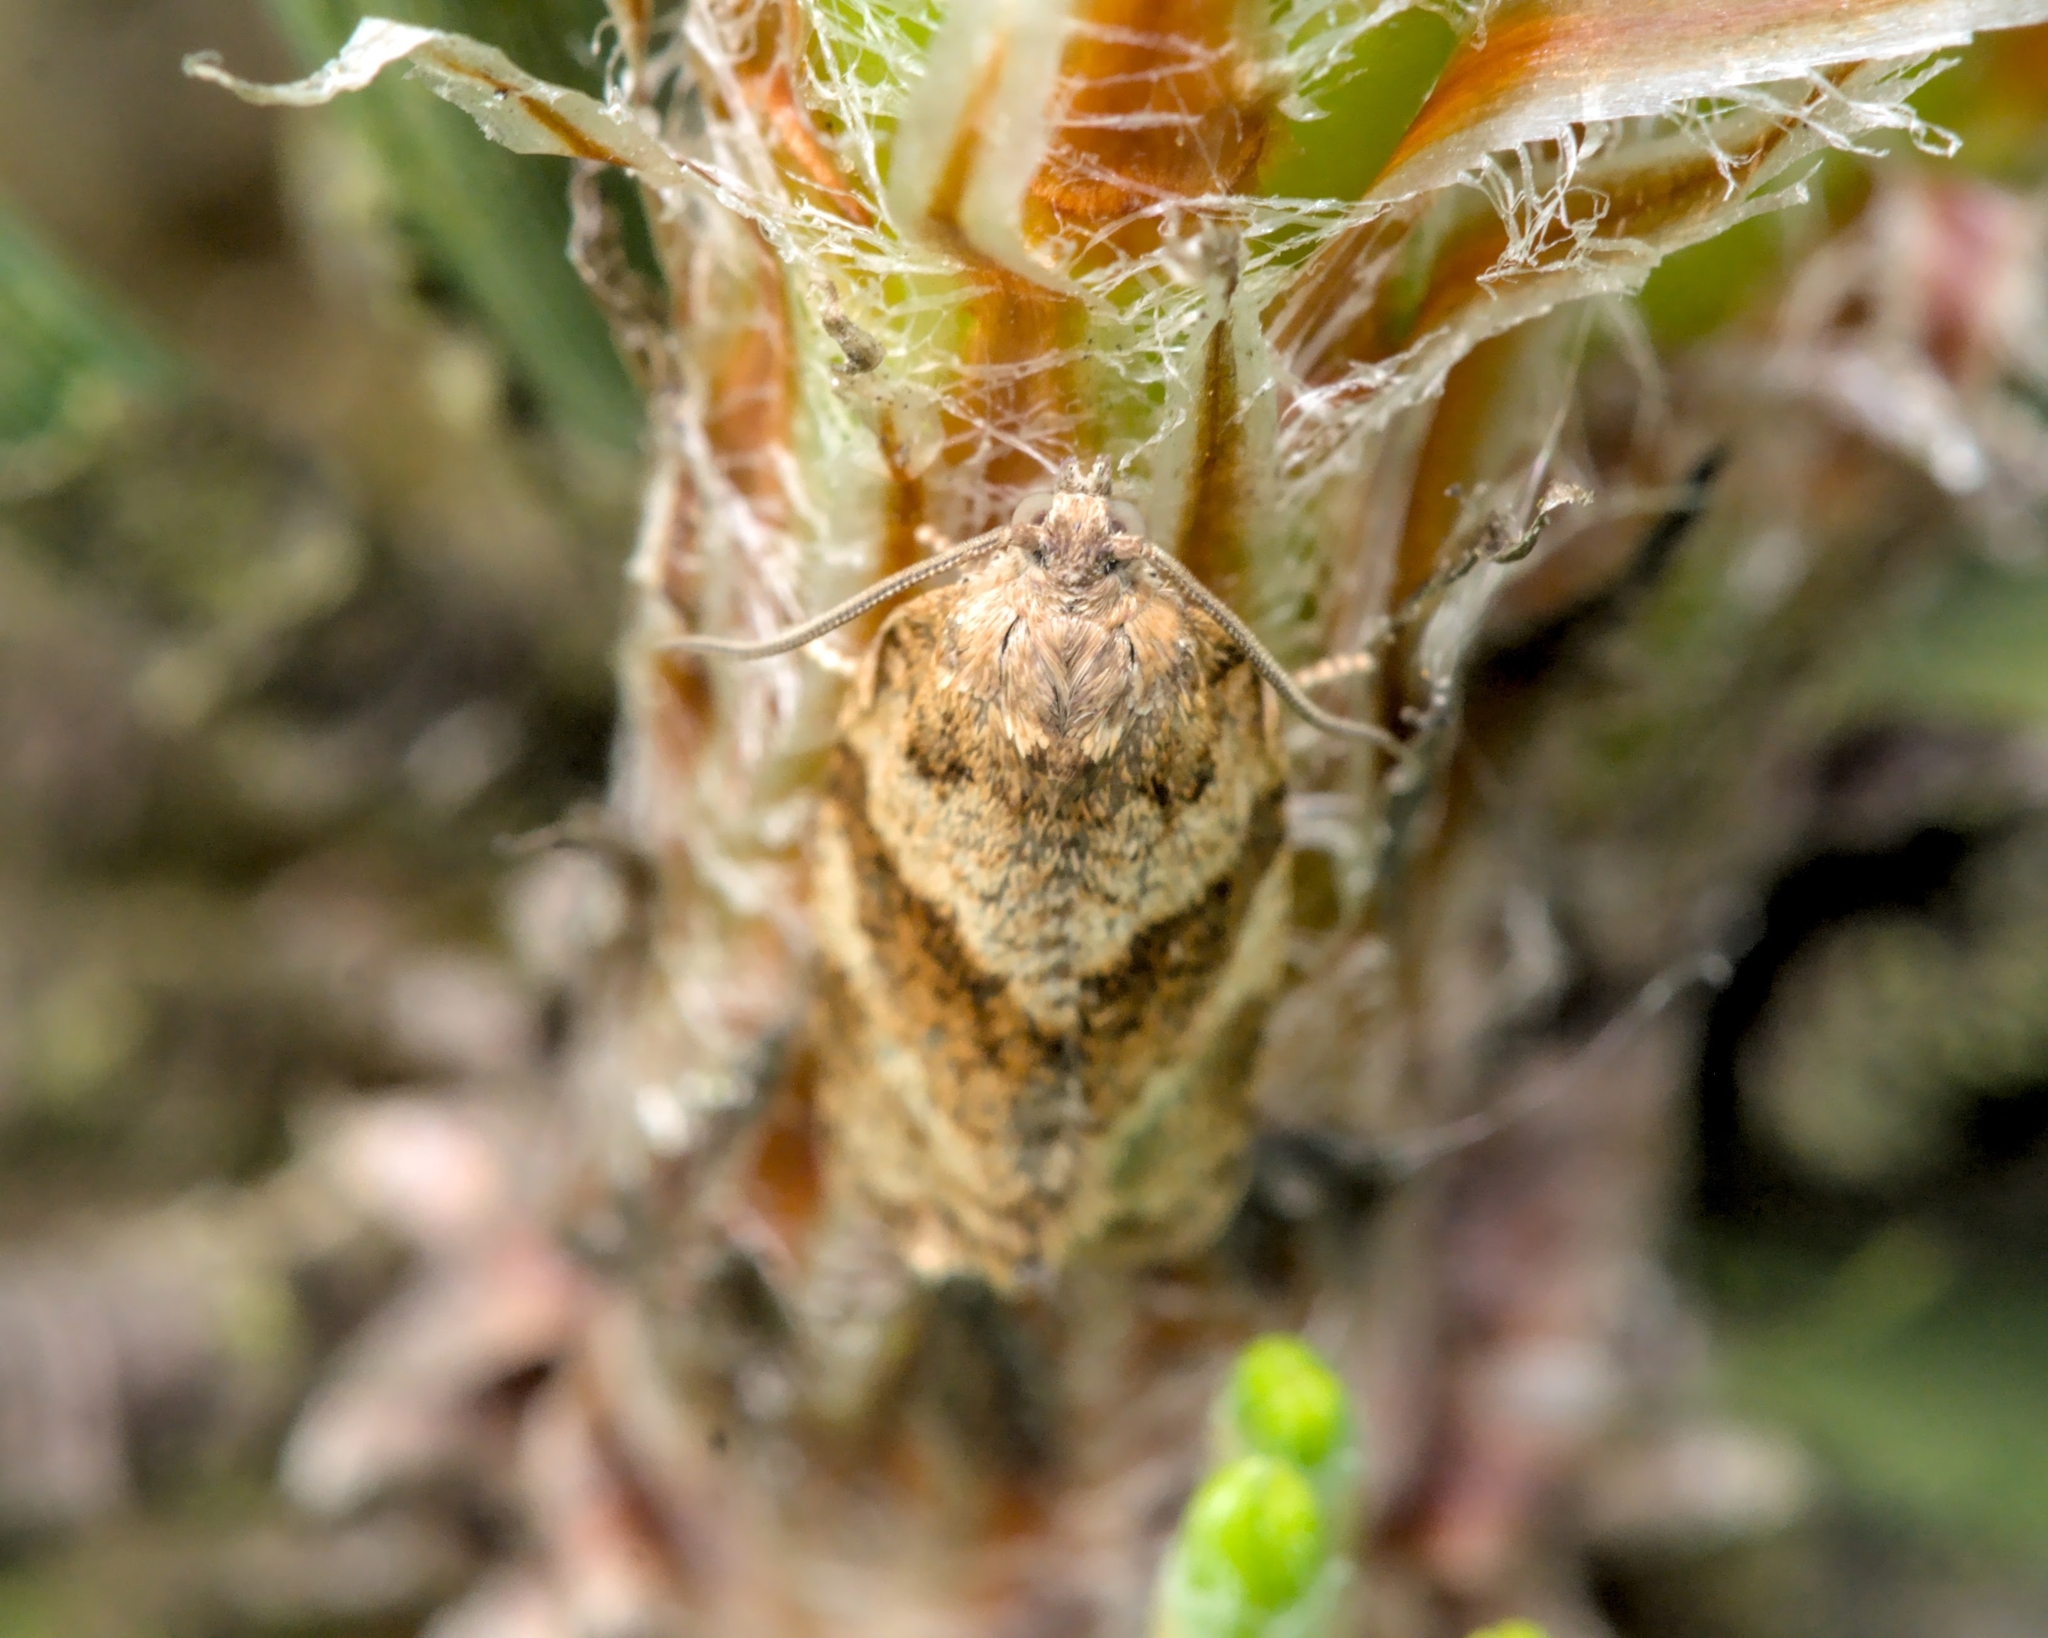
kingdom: Animalia
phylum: Arthropoda
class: Insecta
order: Lepidoptera
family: Tortricidae
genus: Syndemis
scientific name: Syndemis musculana
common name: Dark-barred twist
